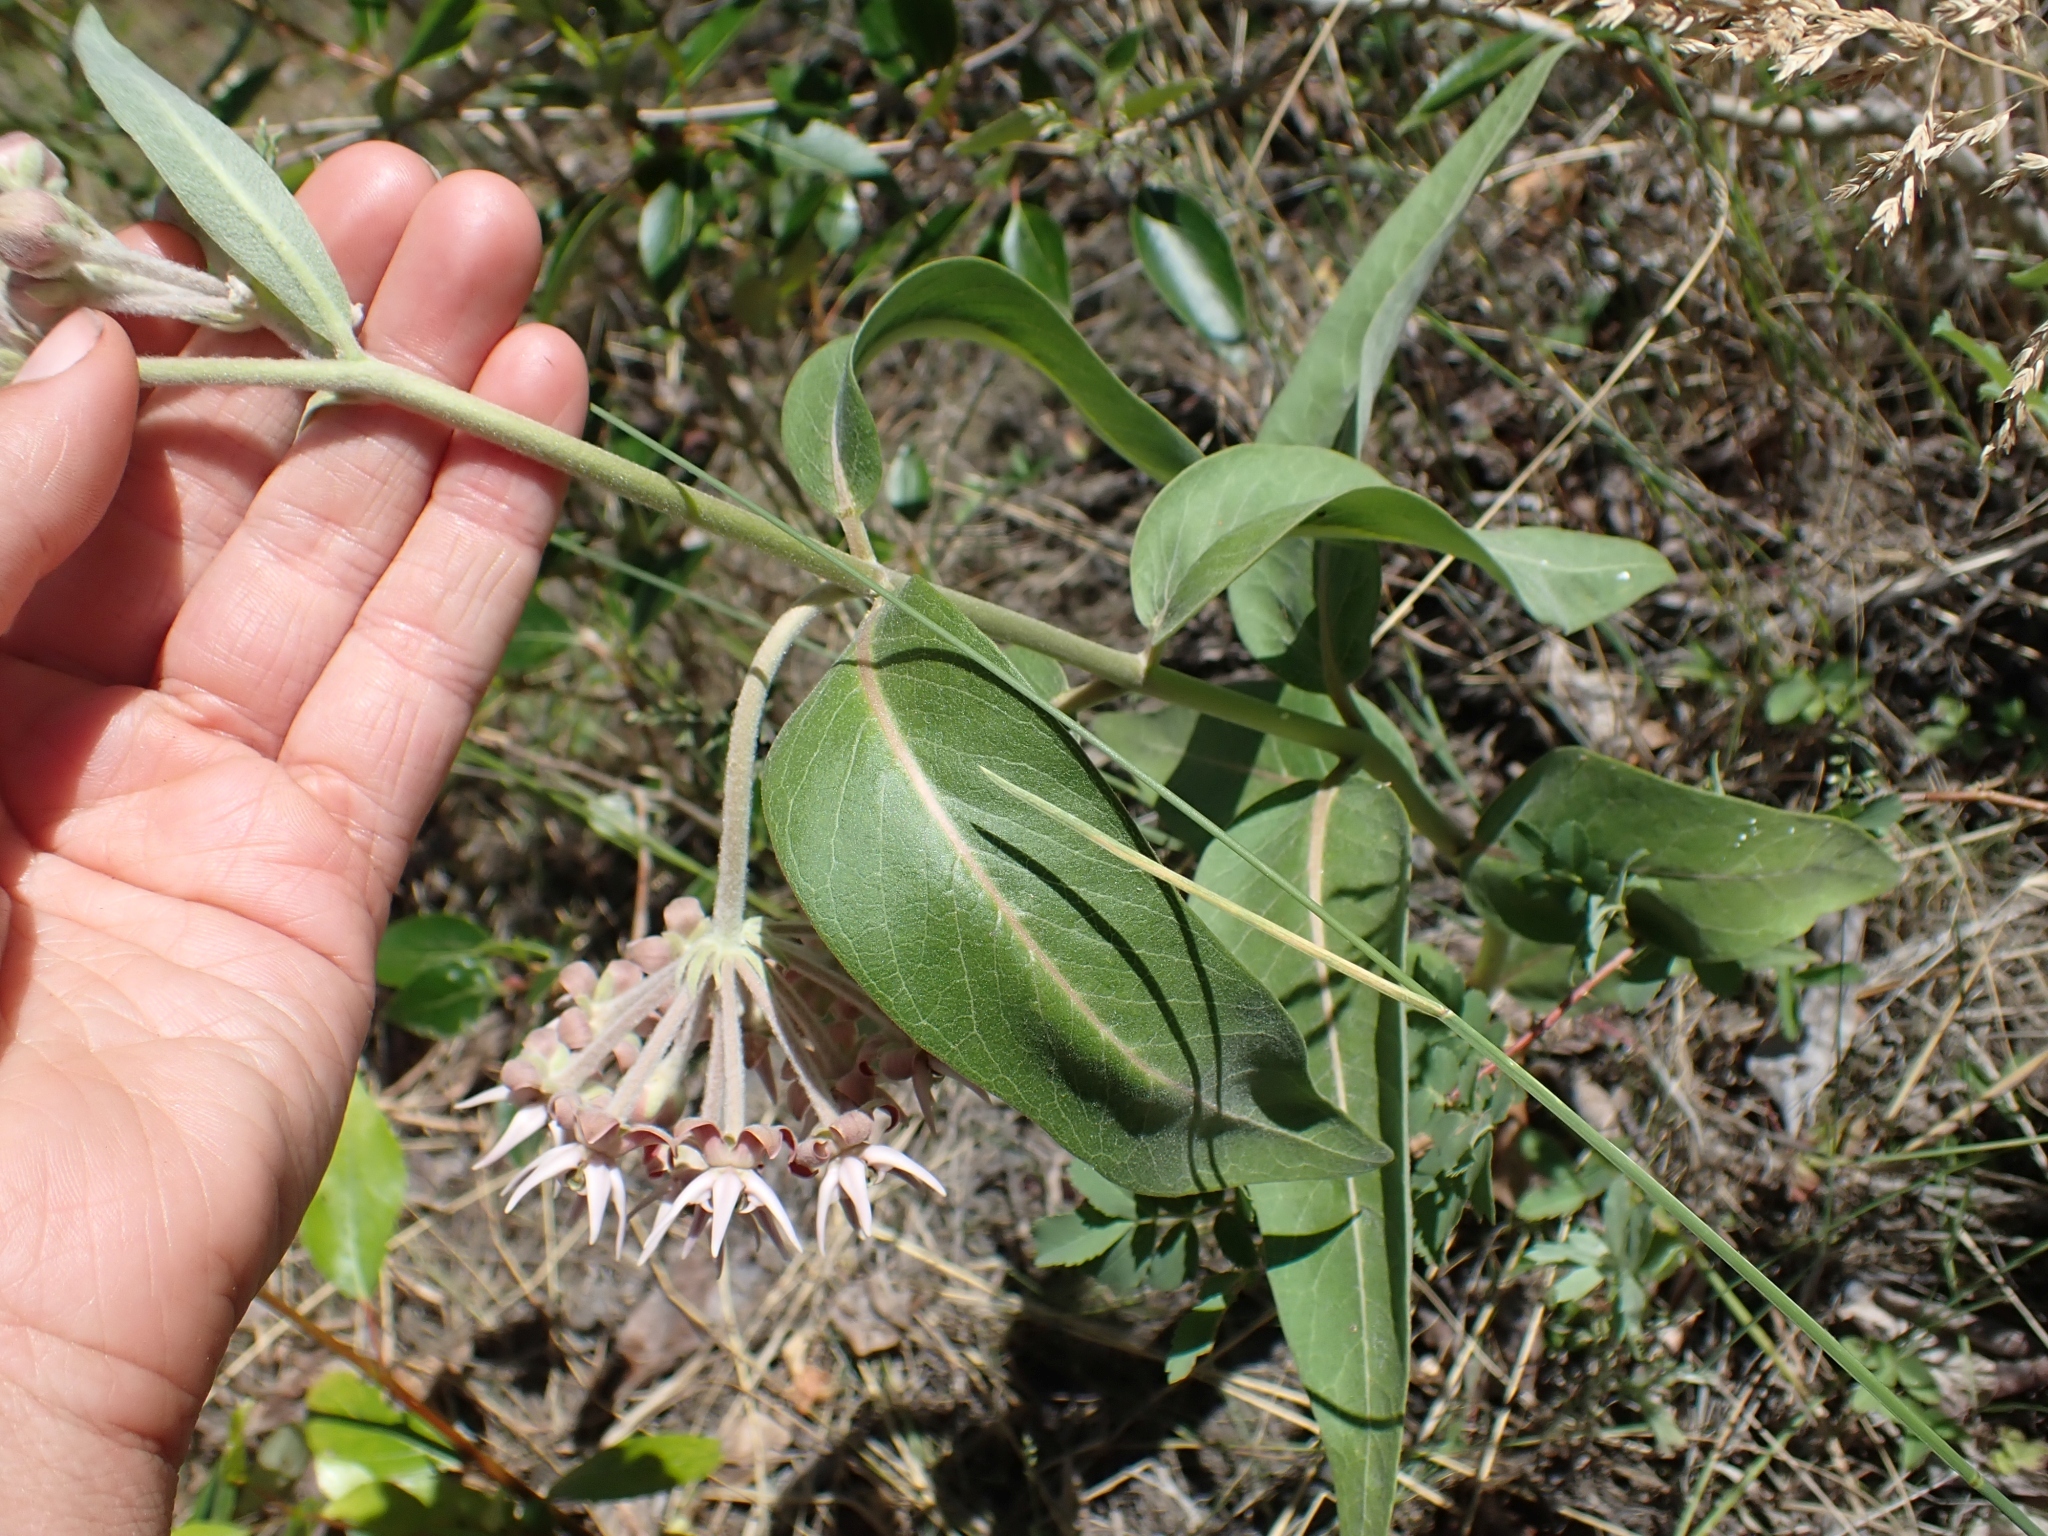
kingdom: Plantae
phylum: Tracheophyta
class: Magnoliopsida
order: Gentianales
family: Apocynaceae
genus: Asclepias
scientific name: Asclepias speciosa
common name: Showy milkweed
